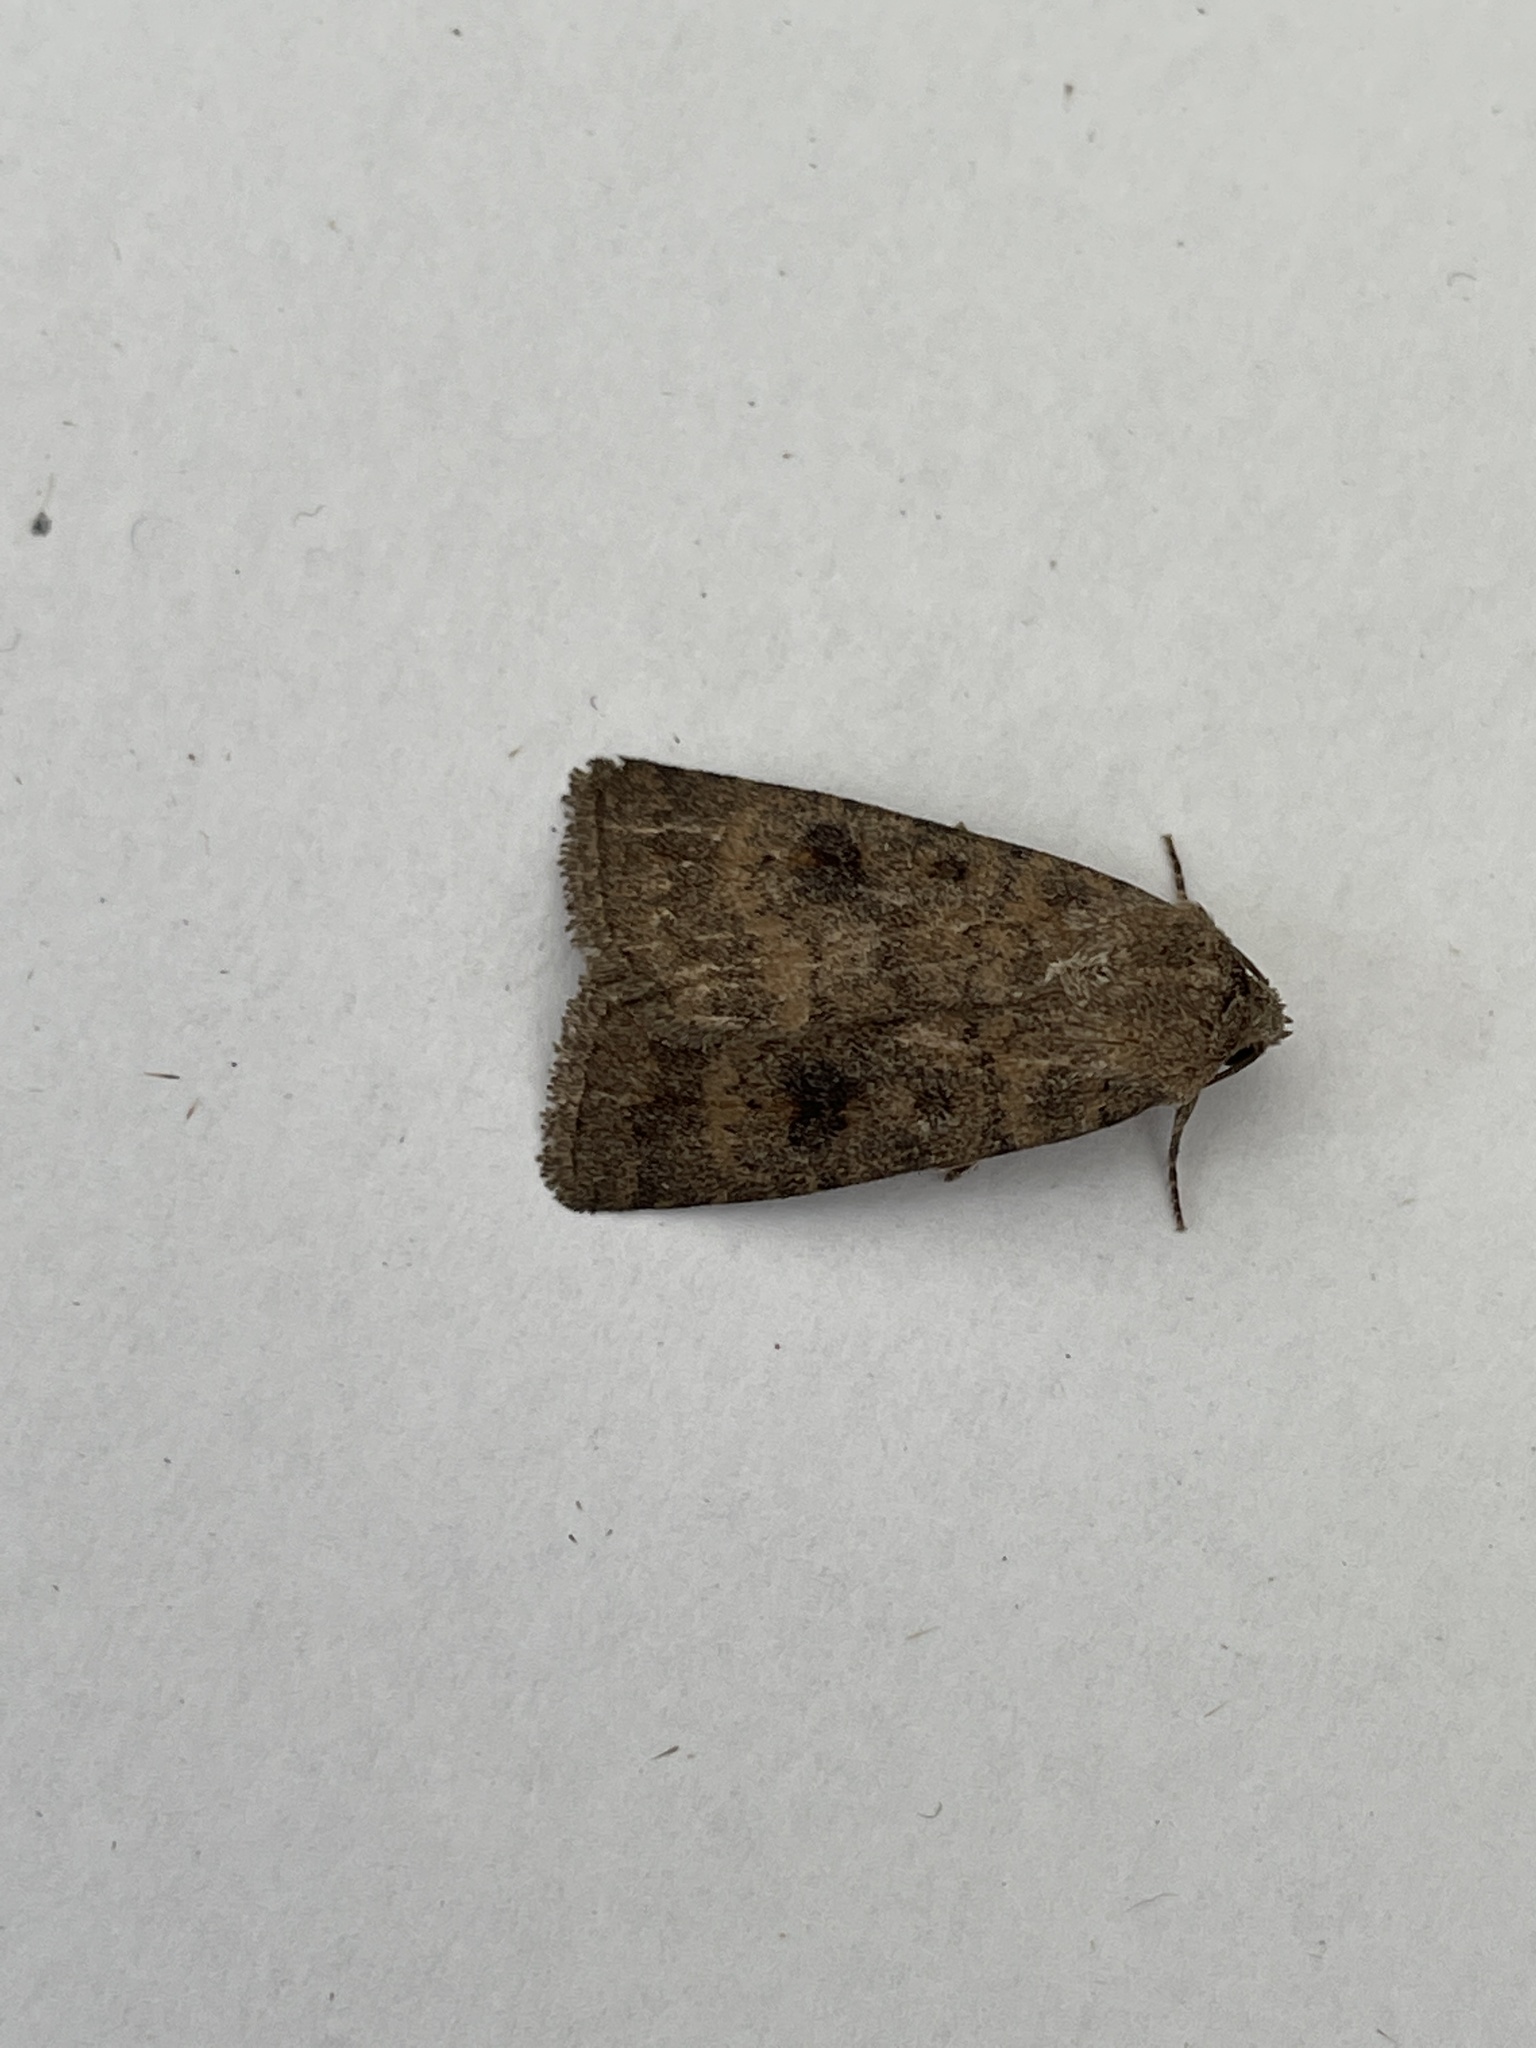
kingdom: Animalia
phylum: Arthropoda
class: Insecta
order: Lepidoptera
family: Noctuidae
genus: Caradrina
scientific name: Caradrina morpheus
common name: Mottled rustic
